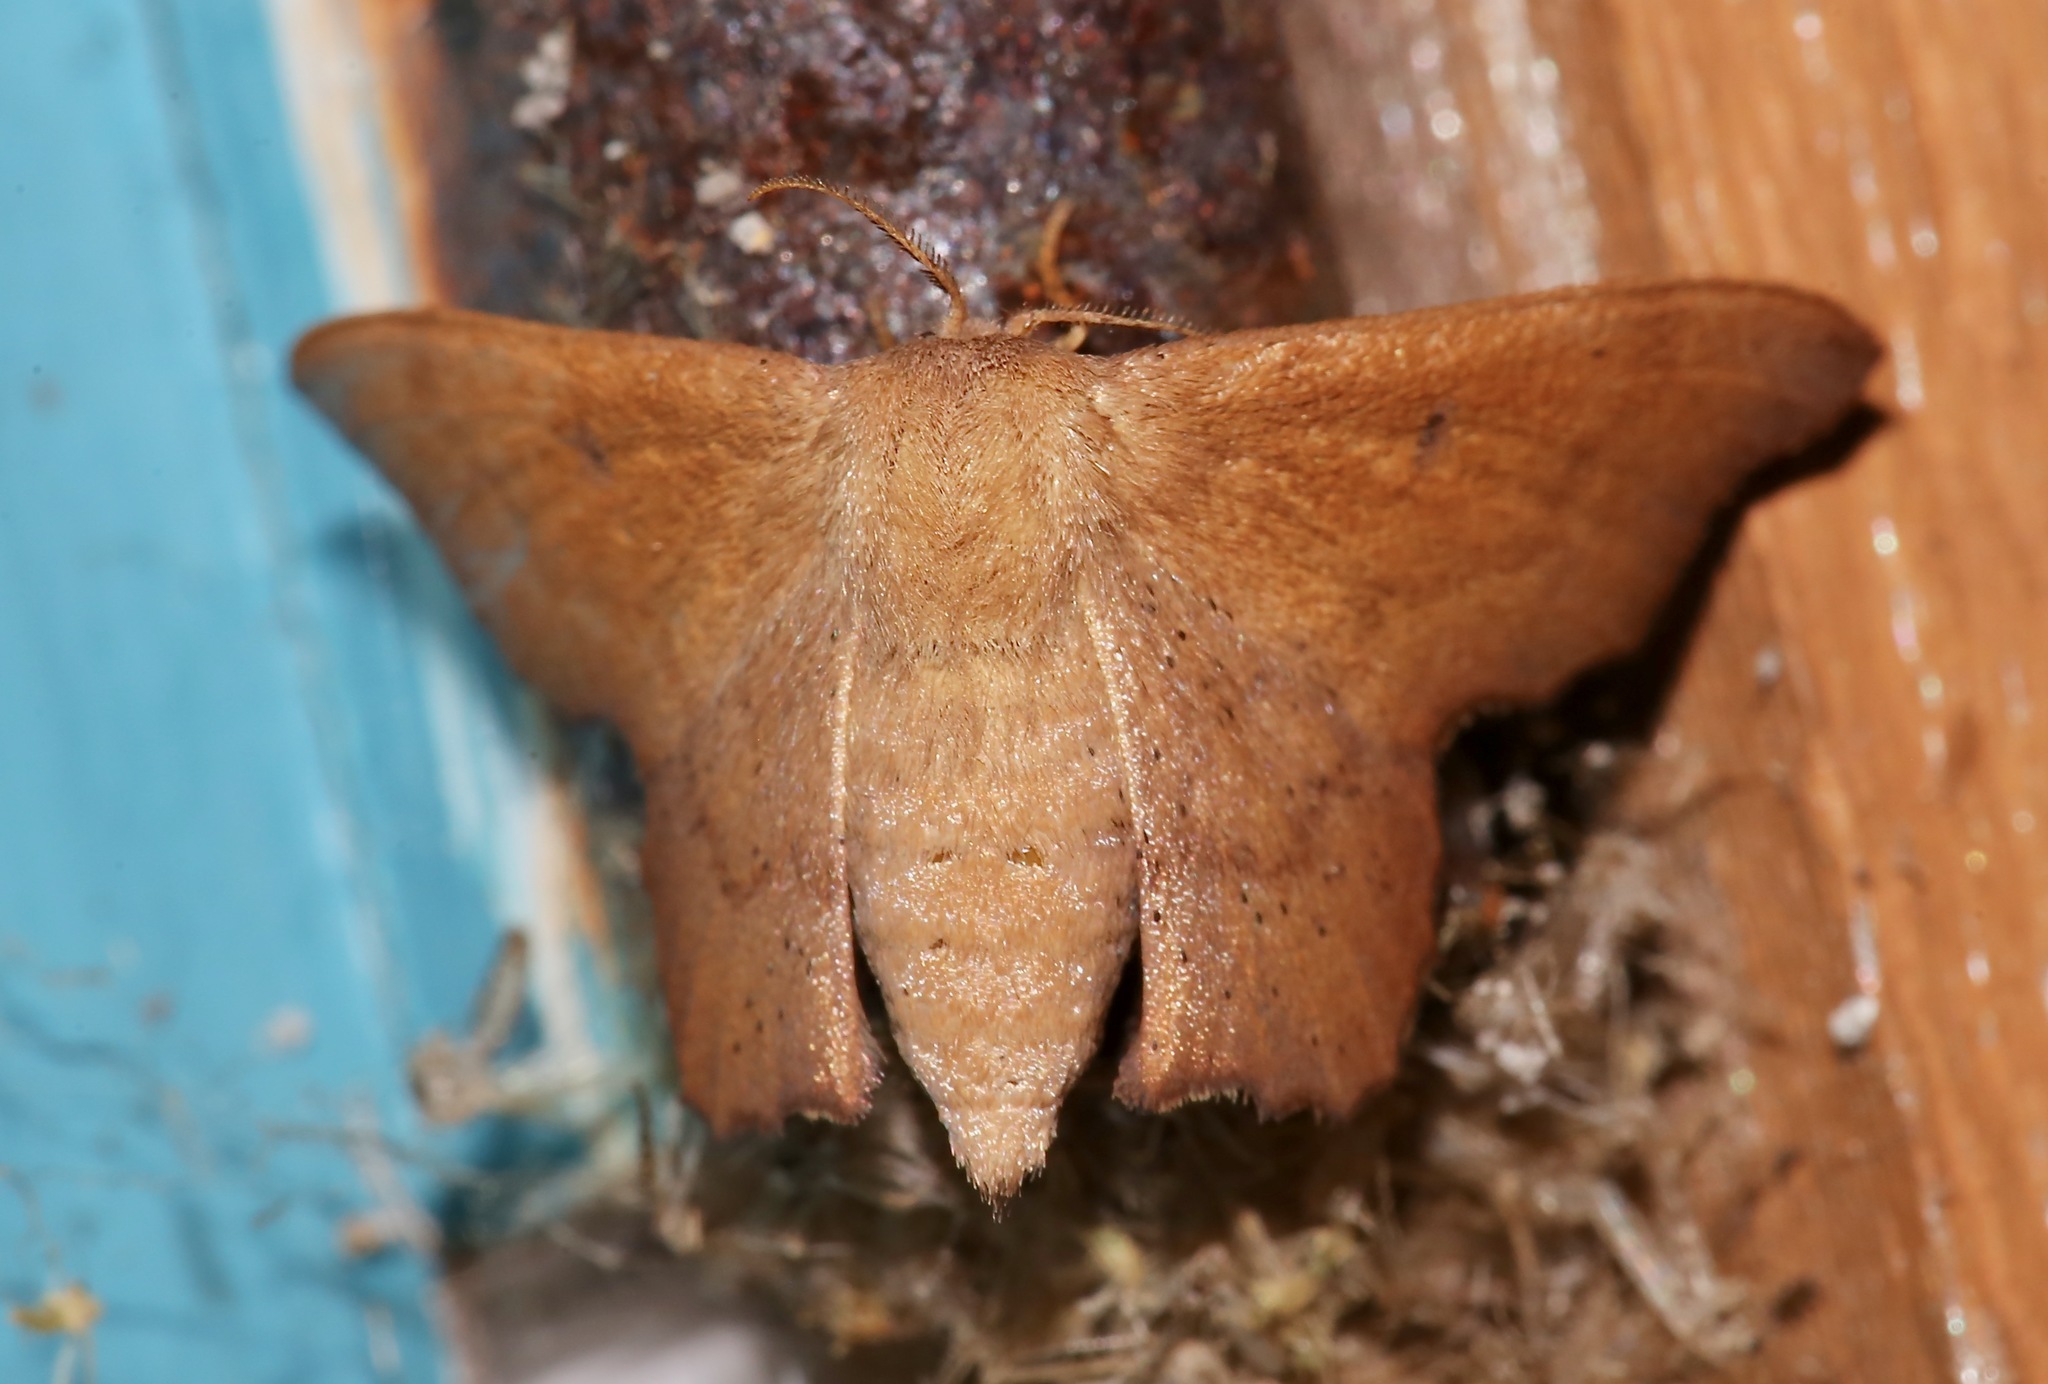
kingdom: Animalia
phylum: Arthropoda
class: Insecta
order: Lepidoptera
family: Mimallonidae
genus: Lacosoma
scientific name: Lacosoma chiridota
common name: Scalloped sack-bearer moth
